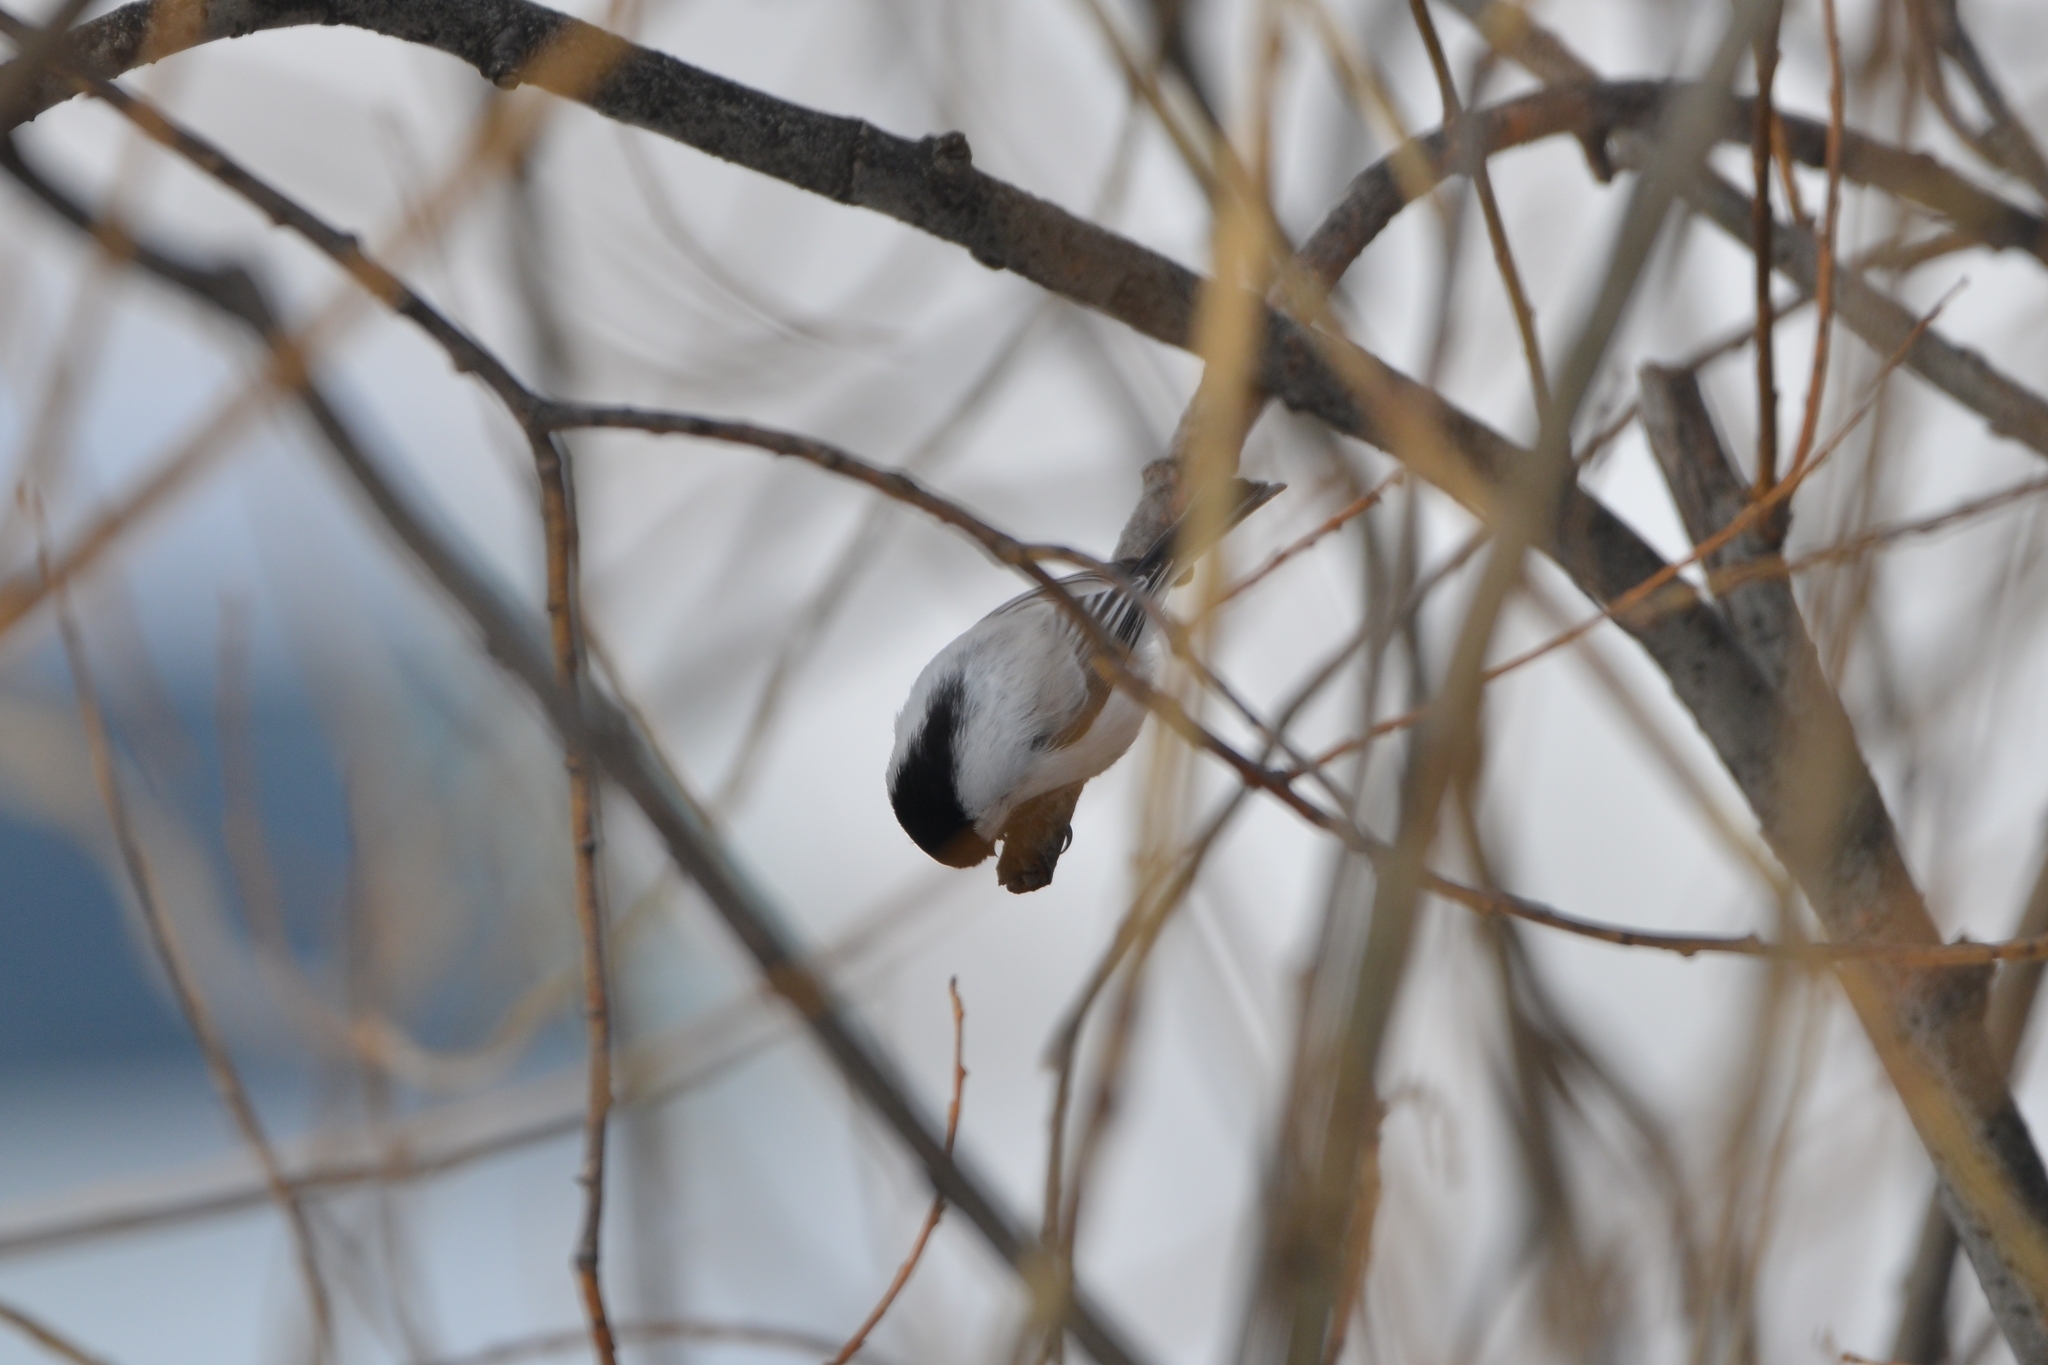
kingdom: Animalia
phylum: Chordata
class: Aves
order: Passeriformes
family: Paridae
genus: Poecile
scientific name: Poecile montanus
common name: Willow tit
